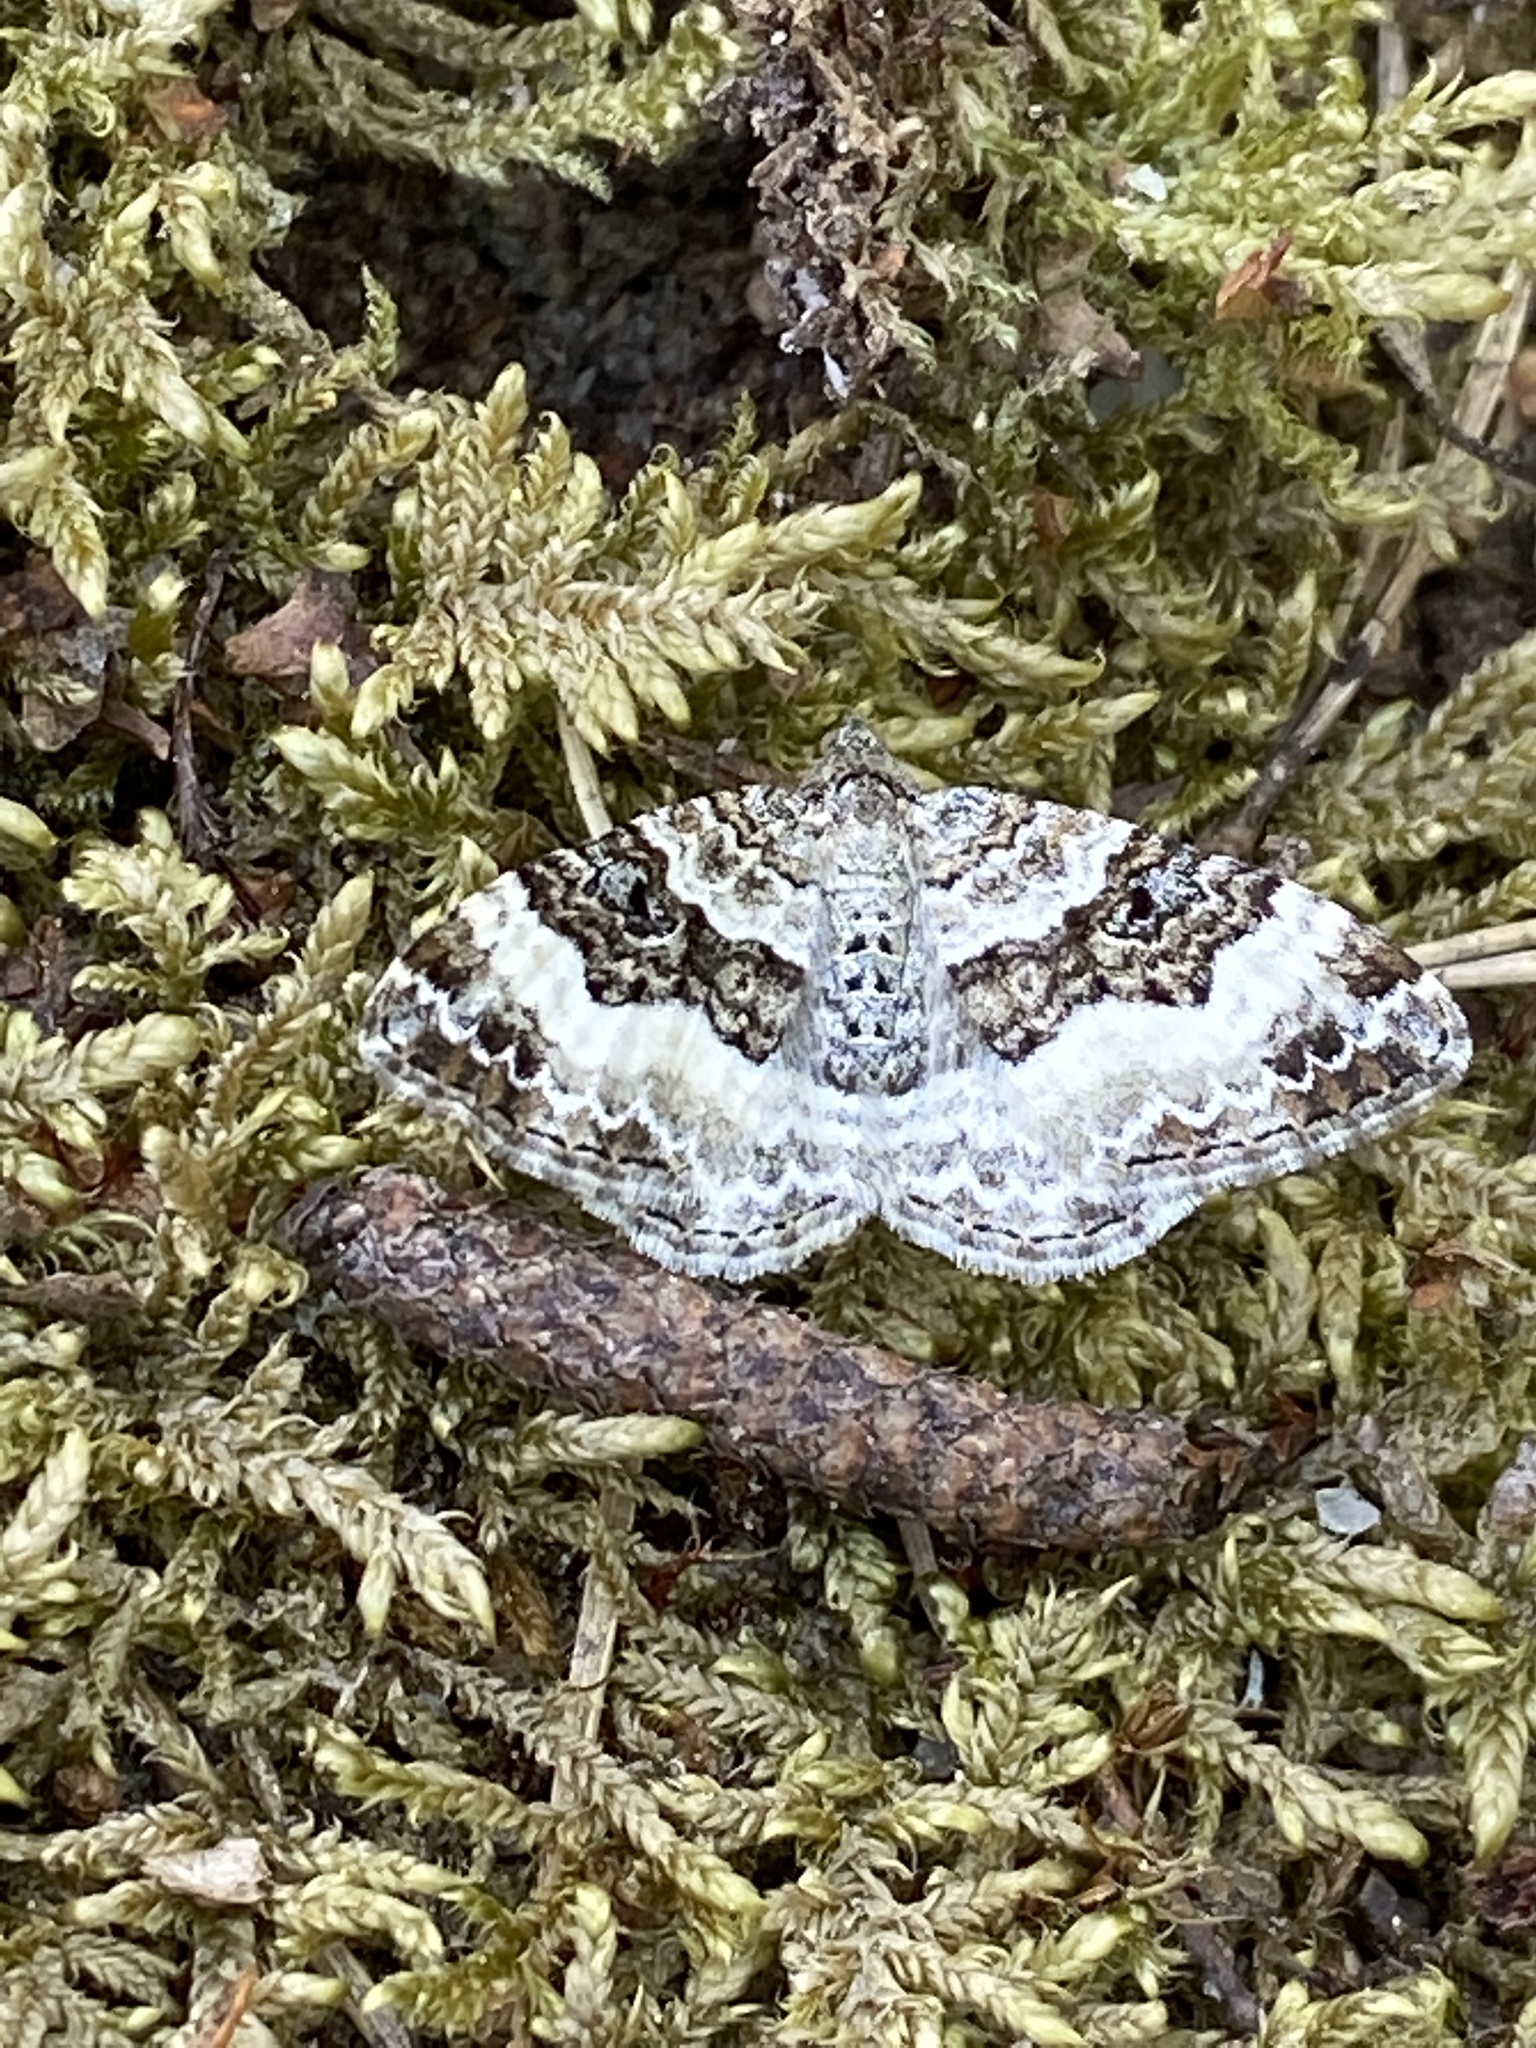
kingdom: Animalia
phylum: Arthropoda
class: Insecta
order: Lepidoptera
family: Geometridae
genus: Epirrhoe
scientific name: Epirrhoe alternata
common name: Common carpet
